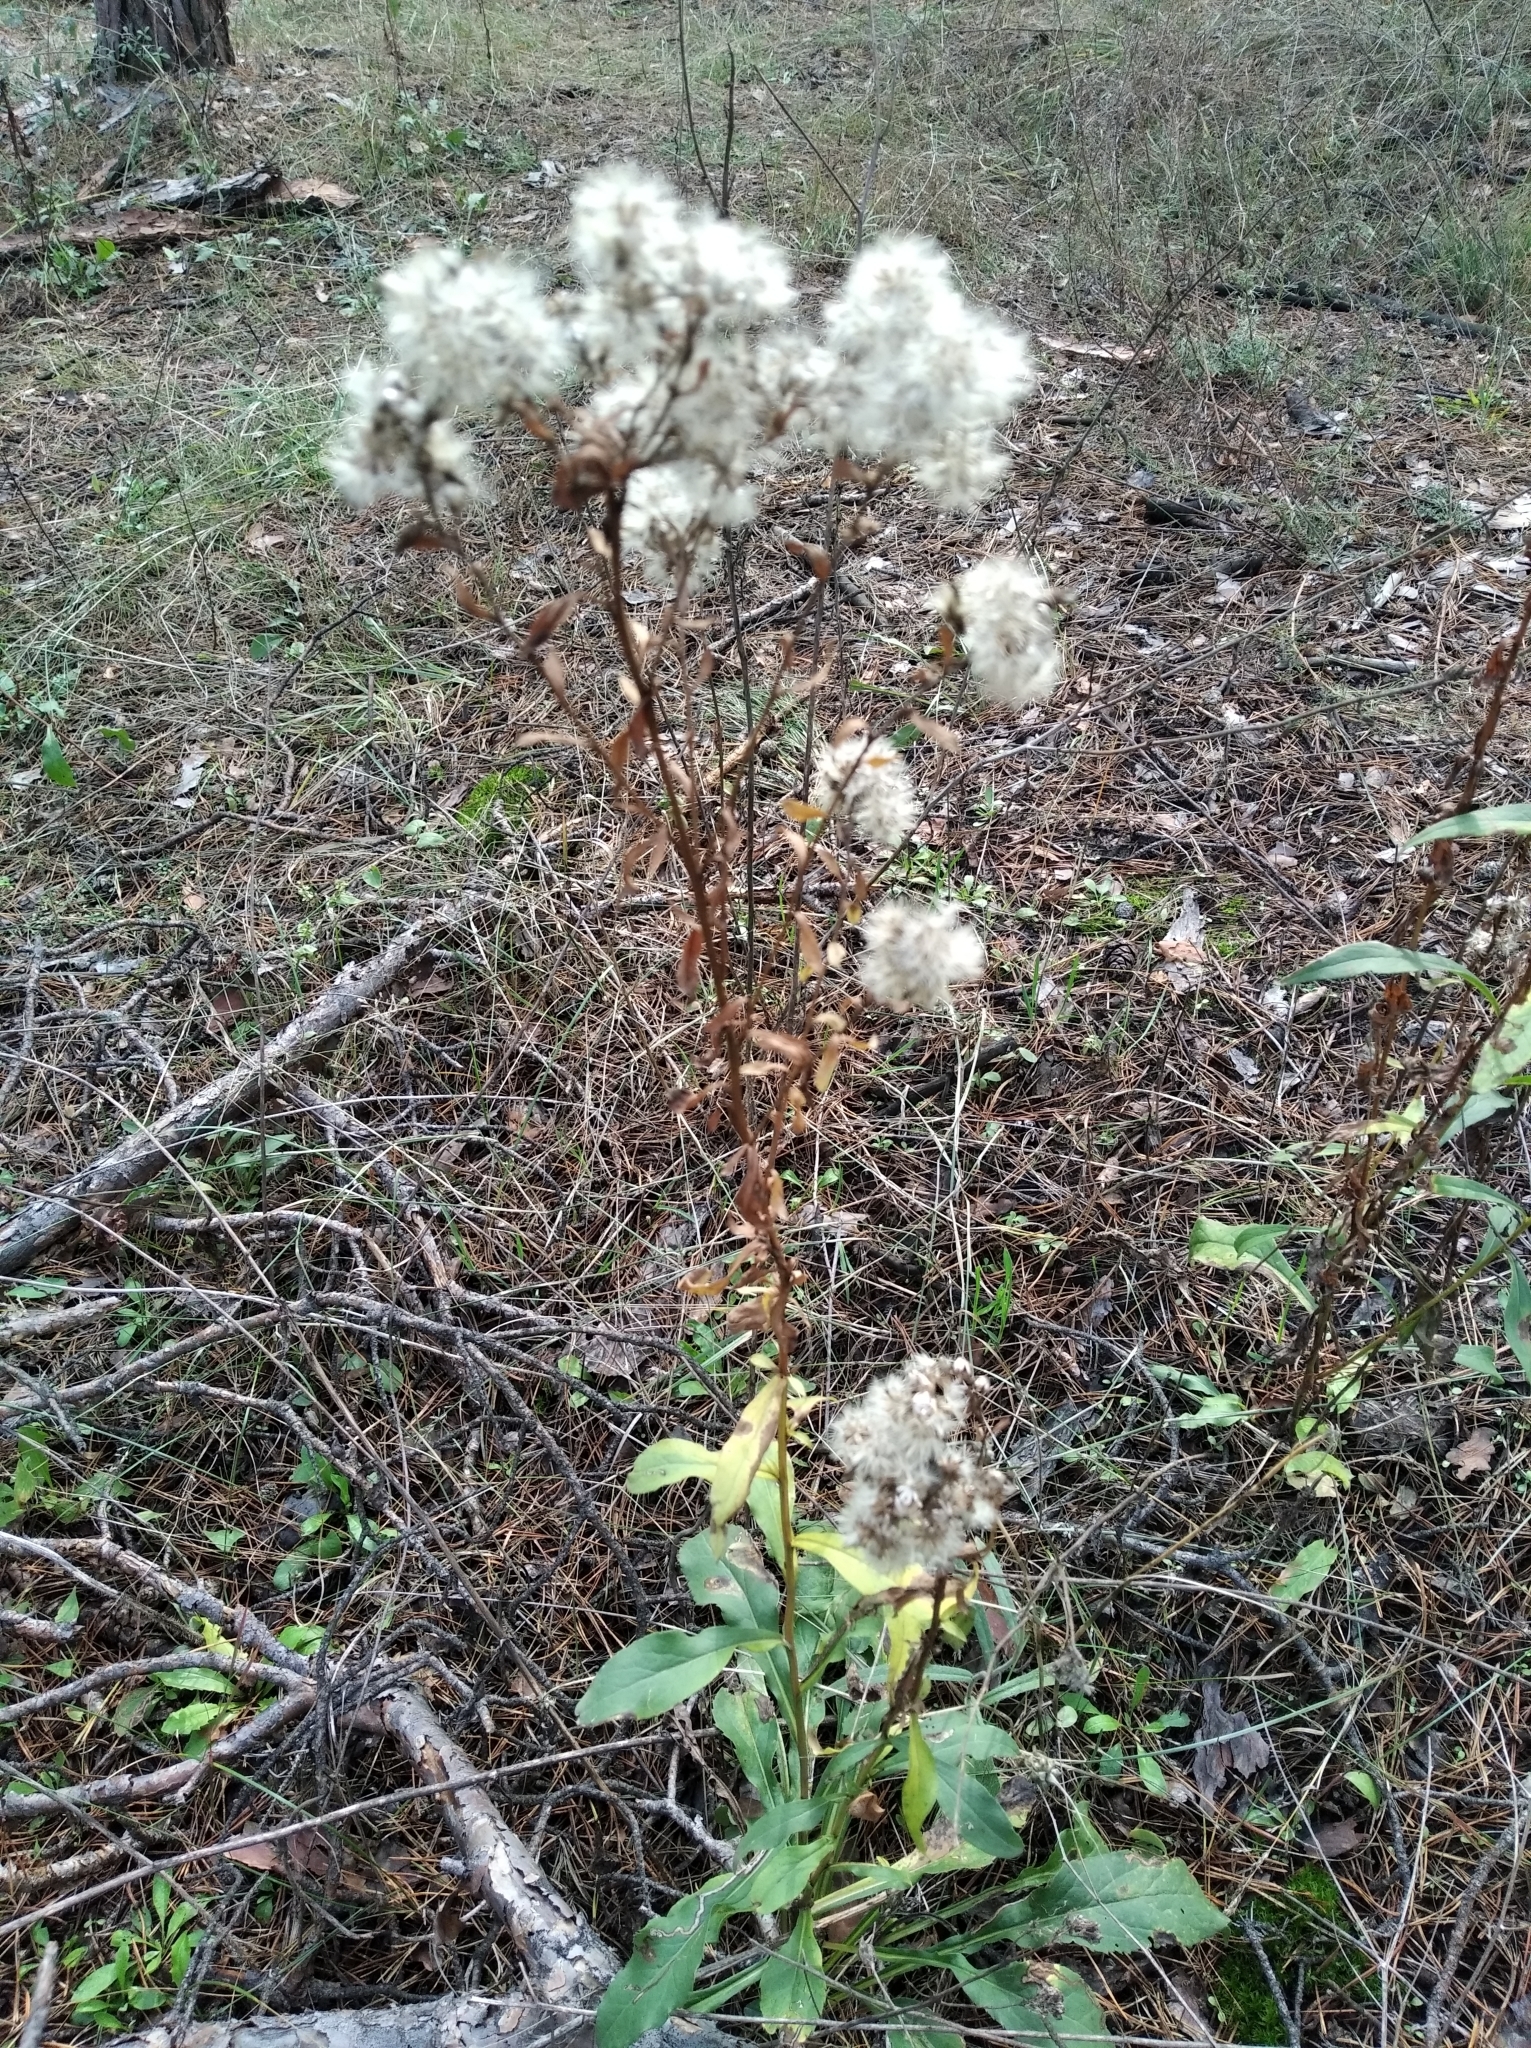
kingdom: Plantae
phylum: Tracheophyta
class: Magnoliopsida
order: Asterales
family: Asteraceae
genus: Cirsium
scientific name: Cirsium arvense
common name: Creeping thistle
